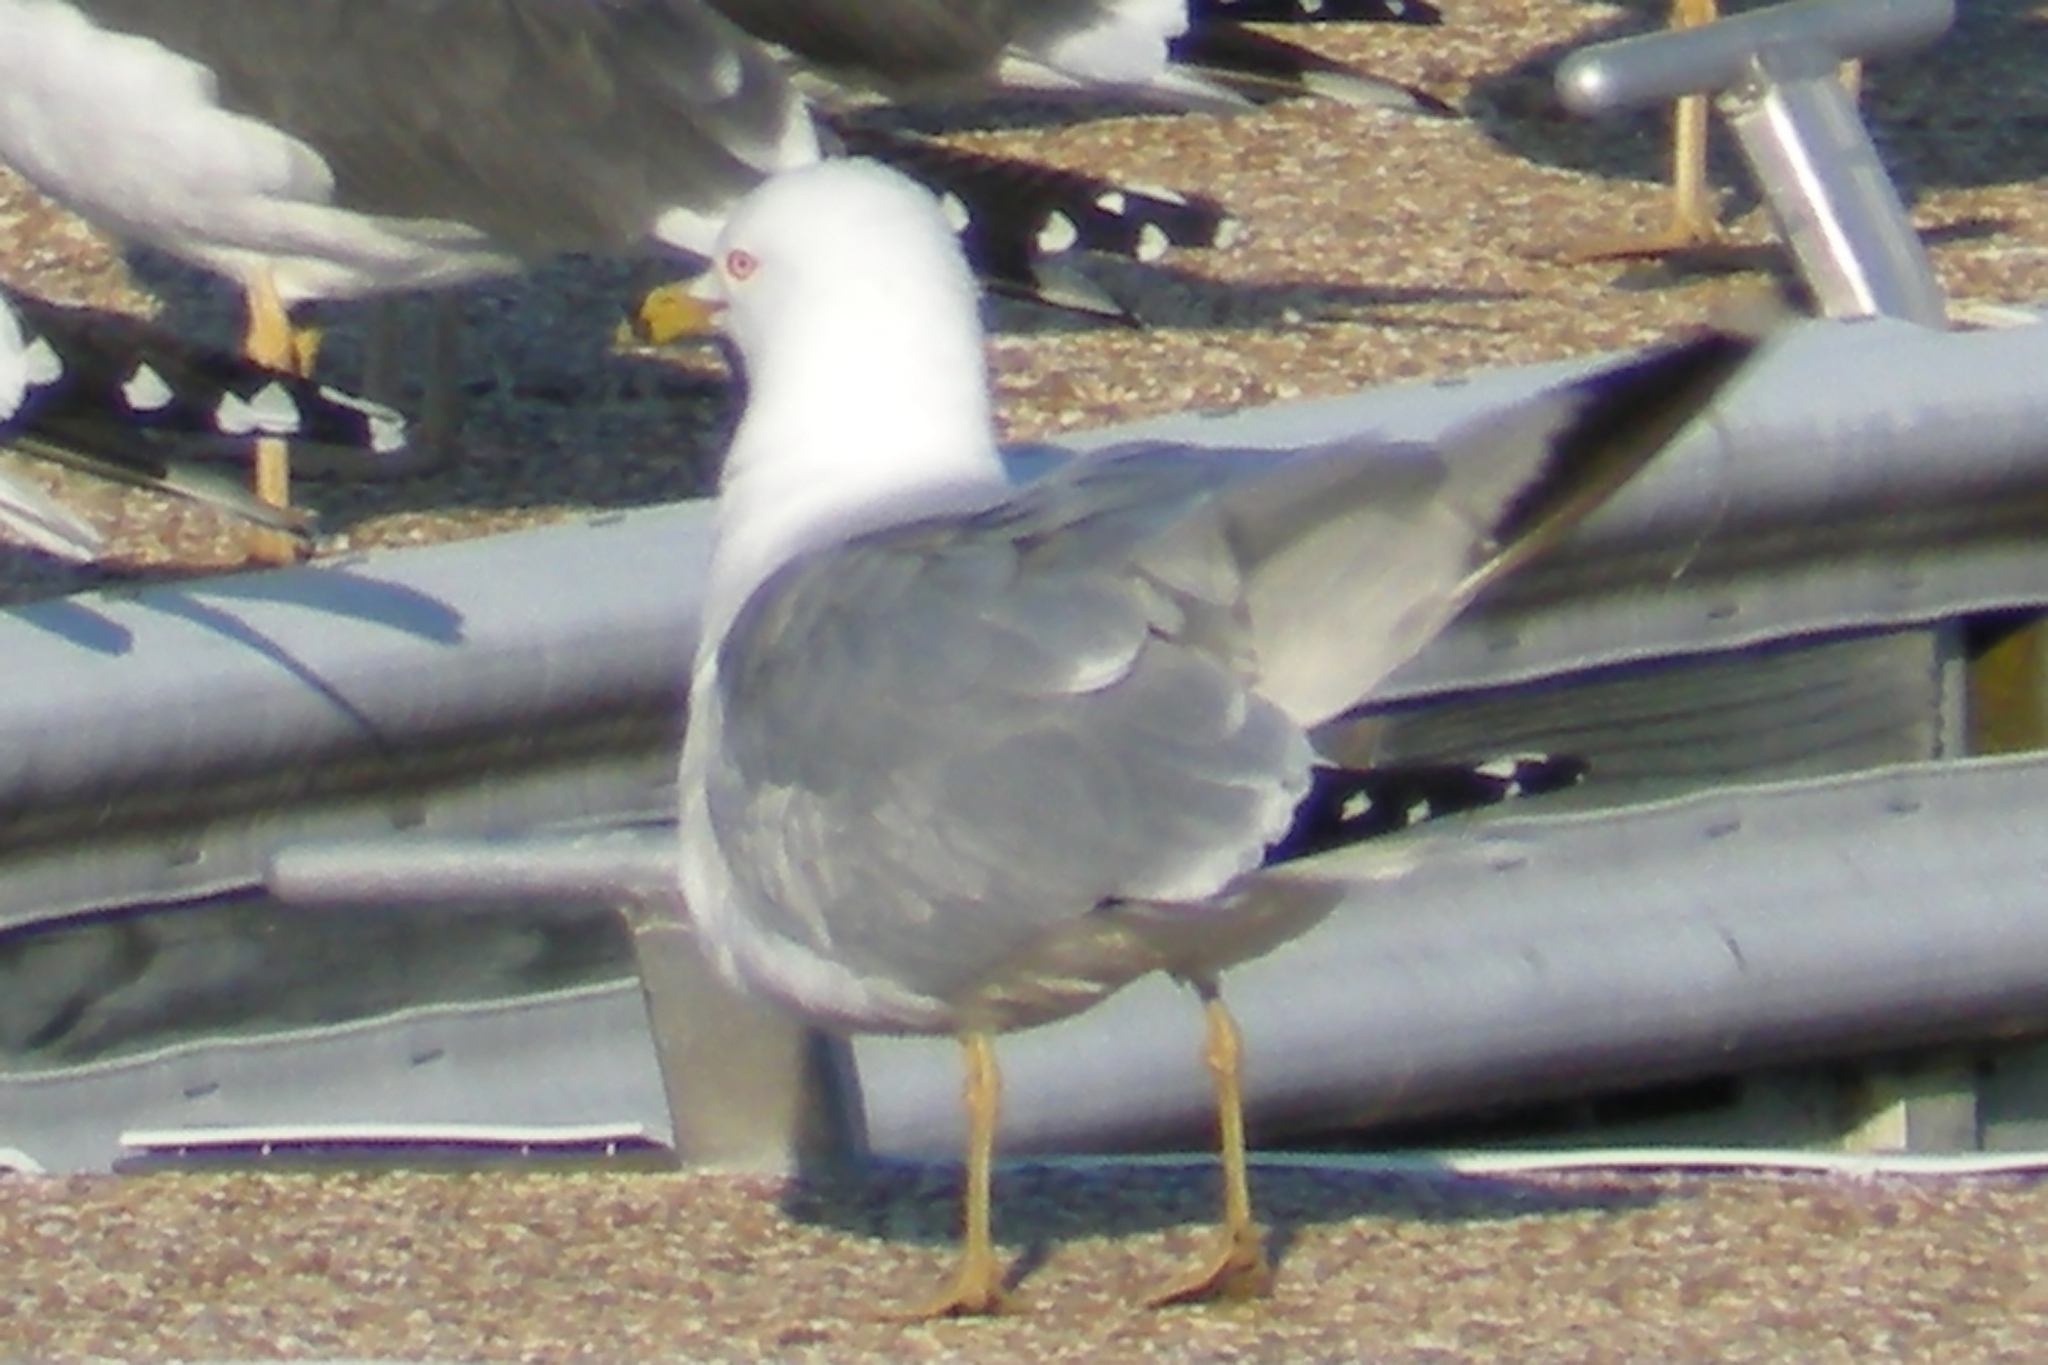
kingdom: Animalia
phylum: Chordata
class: Aves
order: Charadriiformes
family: Laridae
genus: Larus
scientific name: Larus delawarensis
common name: Ring-billed gull
